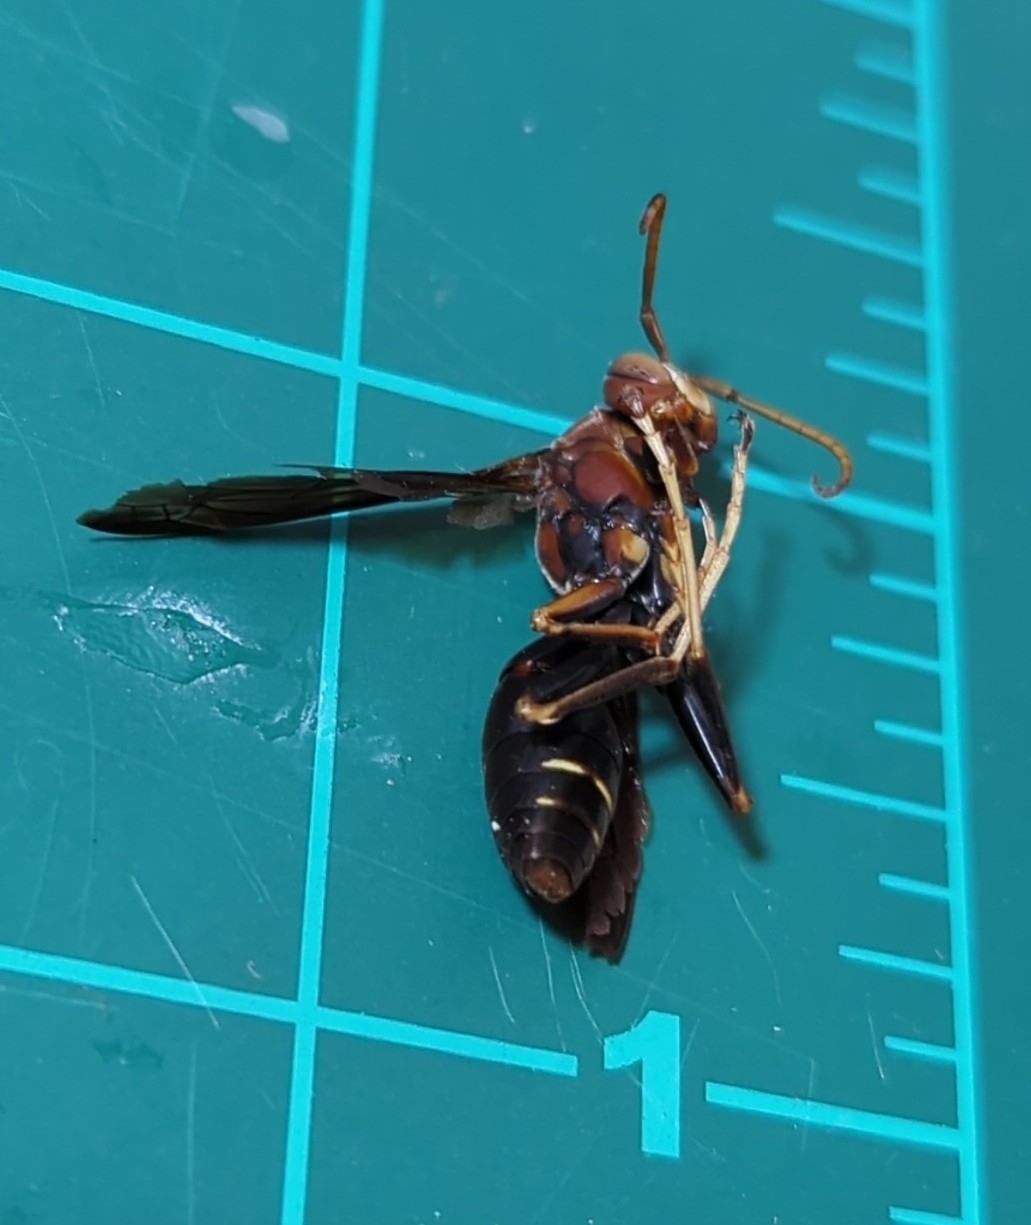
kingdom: Animalia
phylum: Arthropoda
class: Insecta
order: Hymenoptera
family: Eumenidae
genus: Polistes
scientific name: Polistes metricus
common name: Metric paper wasp
